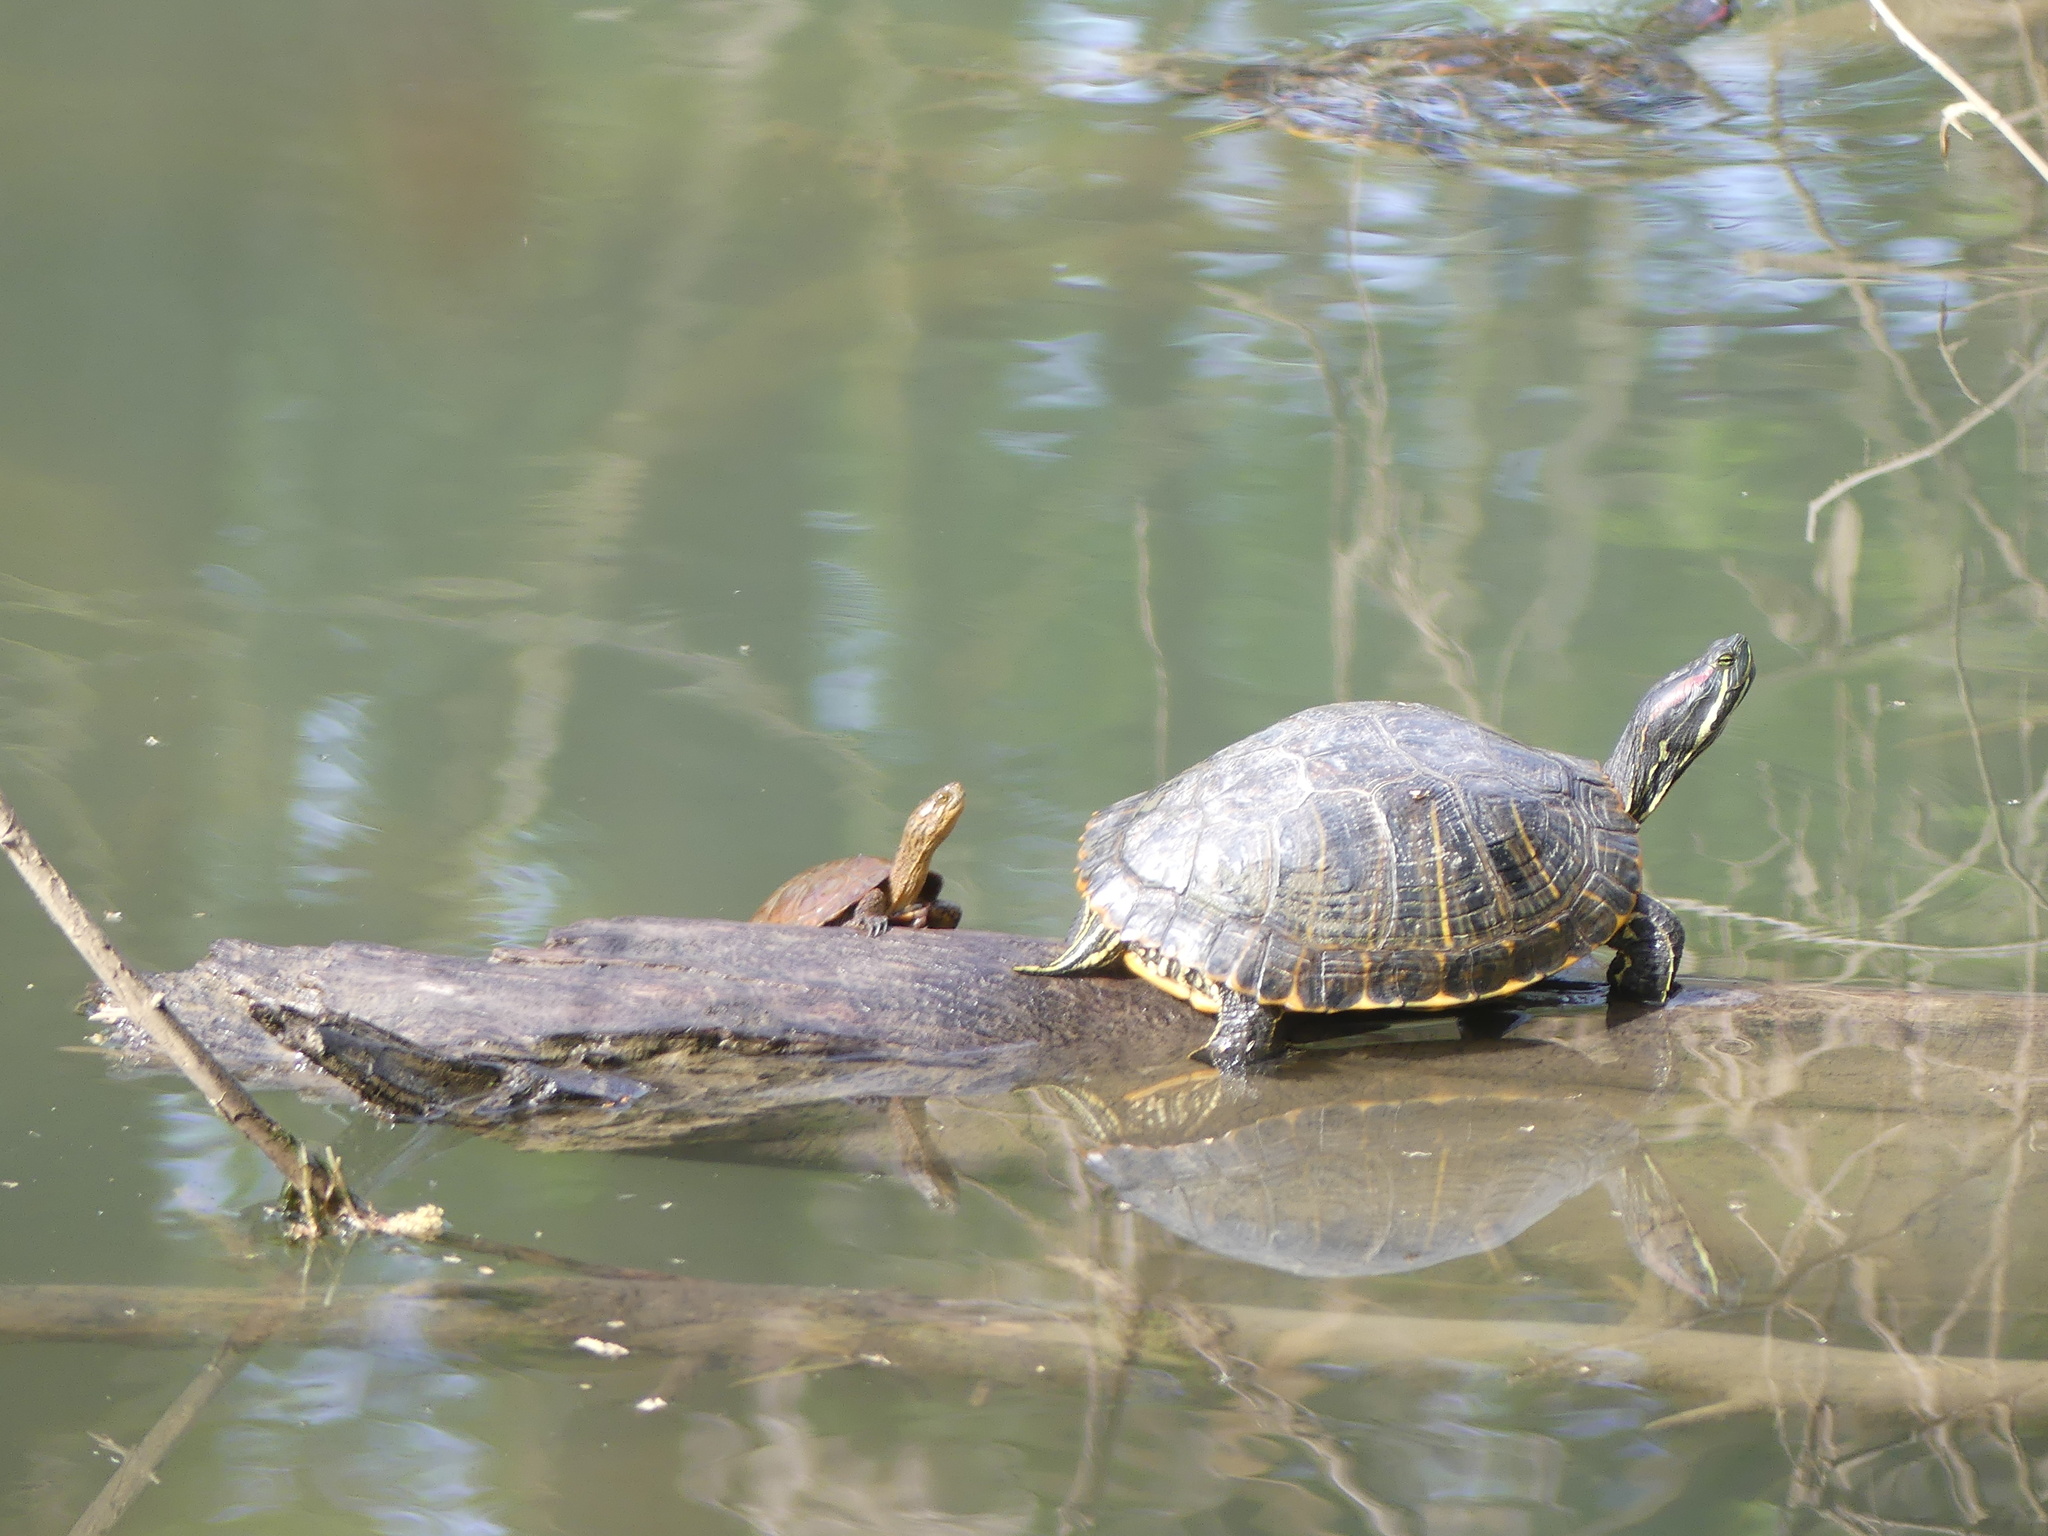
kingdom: Animalia
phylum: Chordata
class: Testudines
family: Emydidae
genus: Actinemys
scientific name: Actinemys marmorata
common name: Western pond turtle
